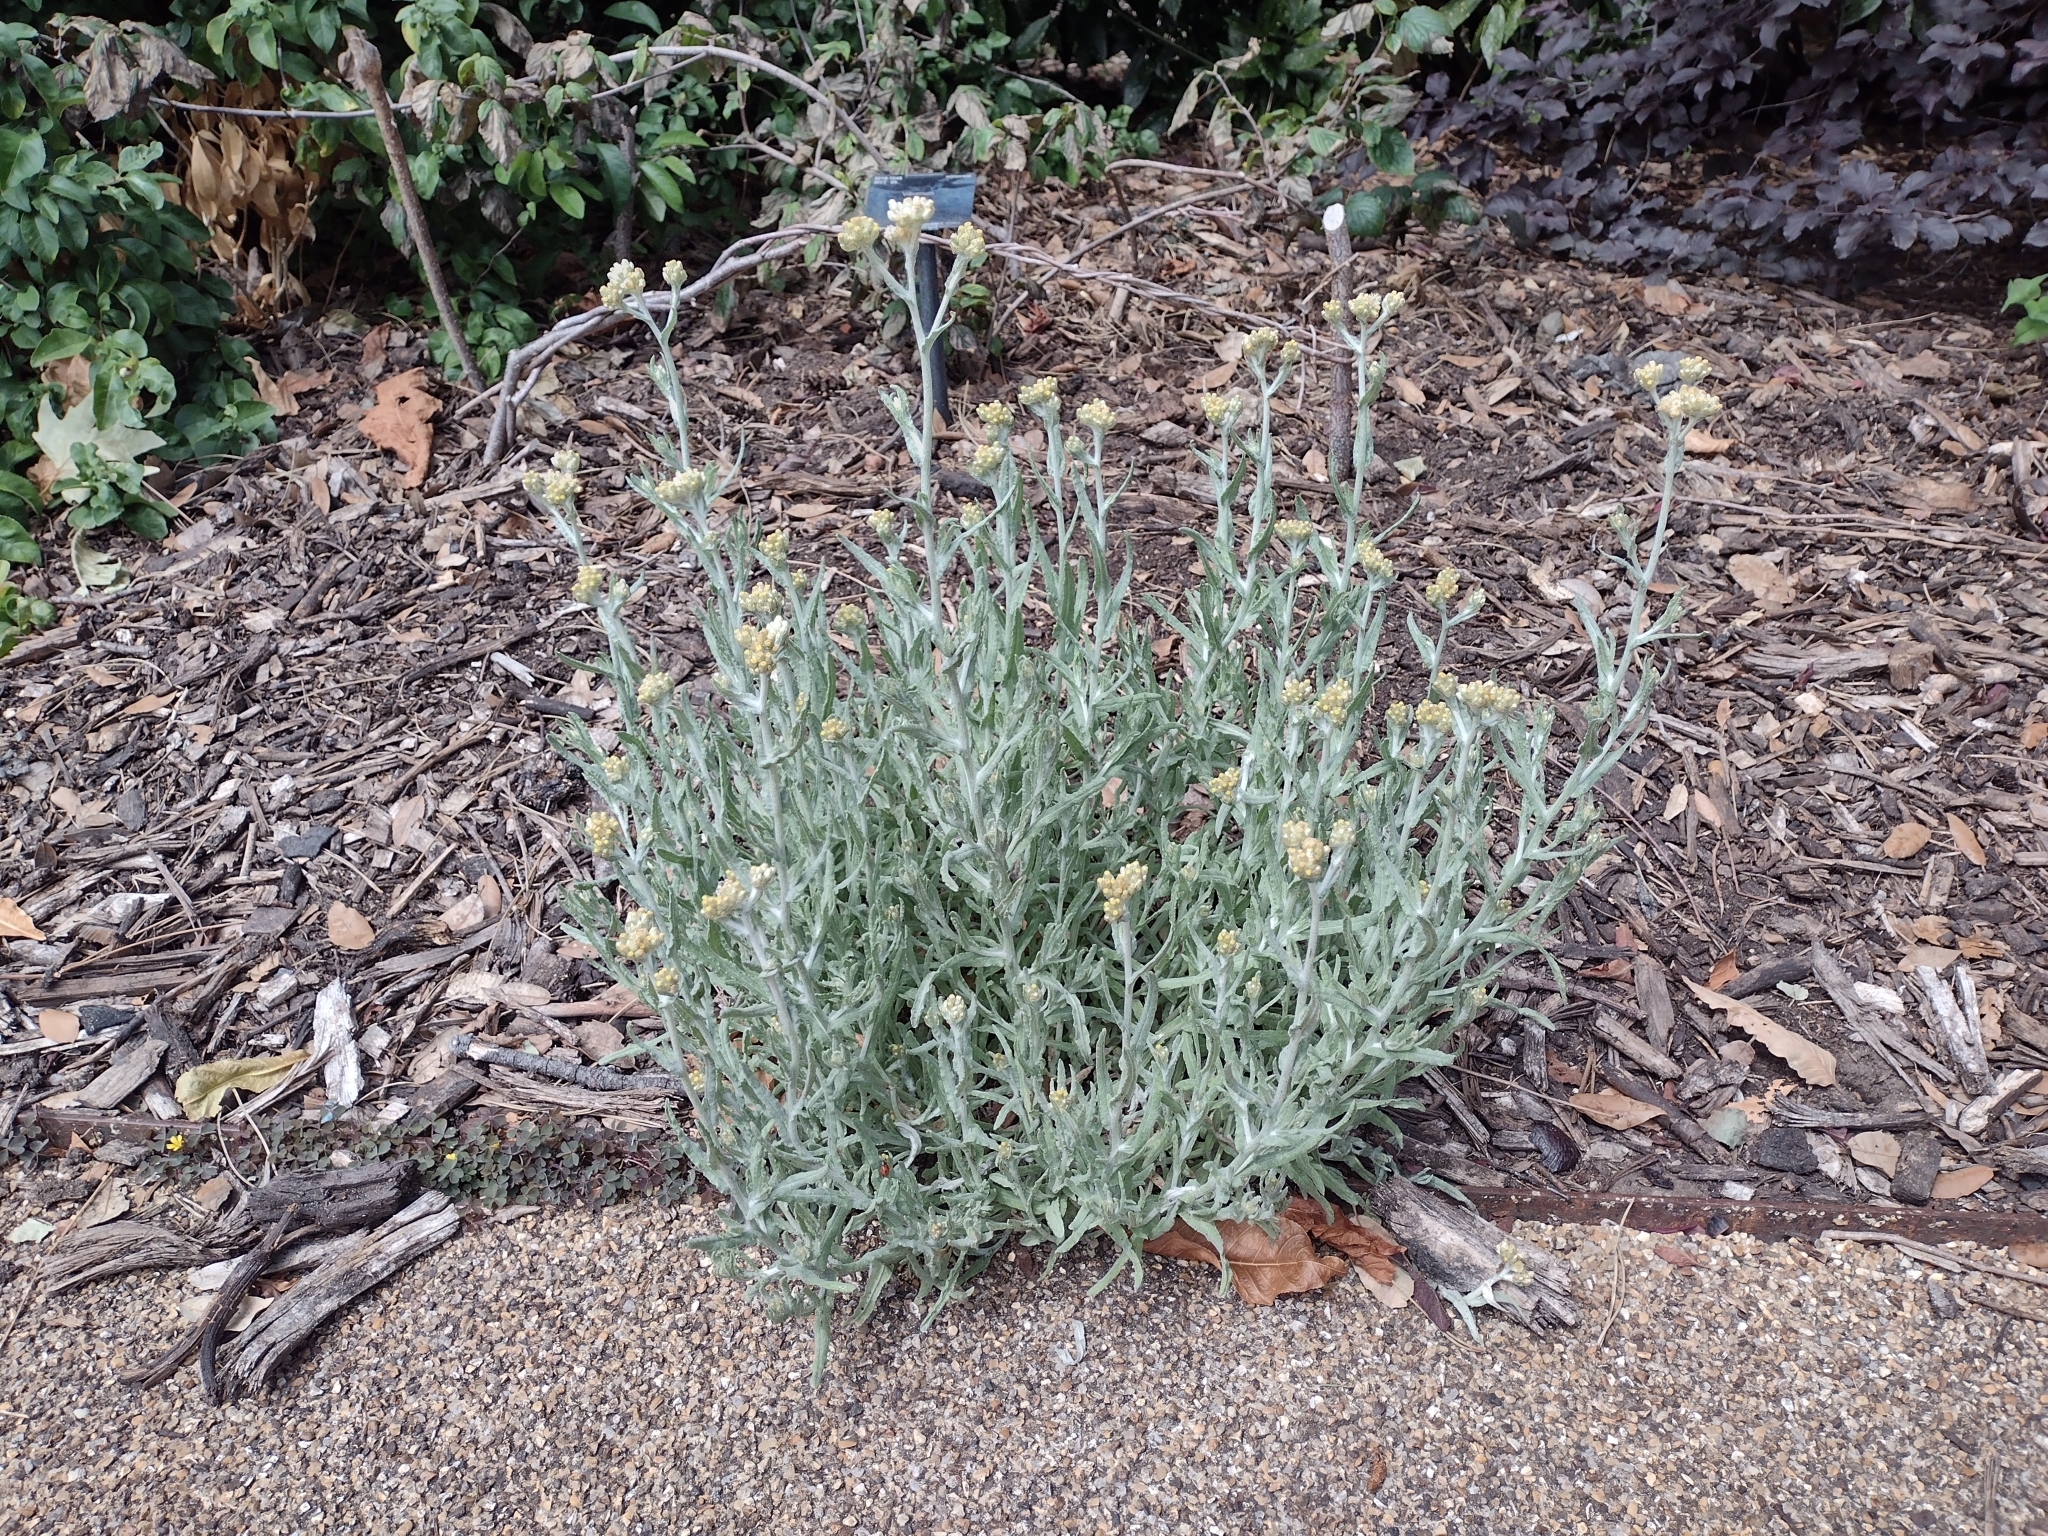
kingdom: Plantae
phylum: Tracheophyta
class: Magnoliopsida
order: Asterales
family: Asteraceae
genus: Helichrysum
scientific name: Helichrysum luteoalbum
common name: Daisy
